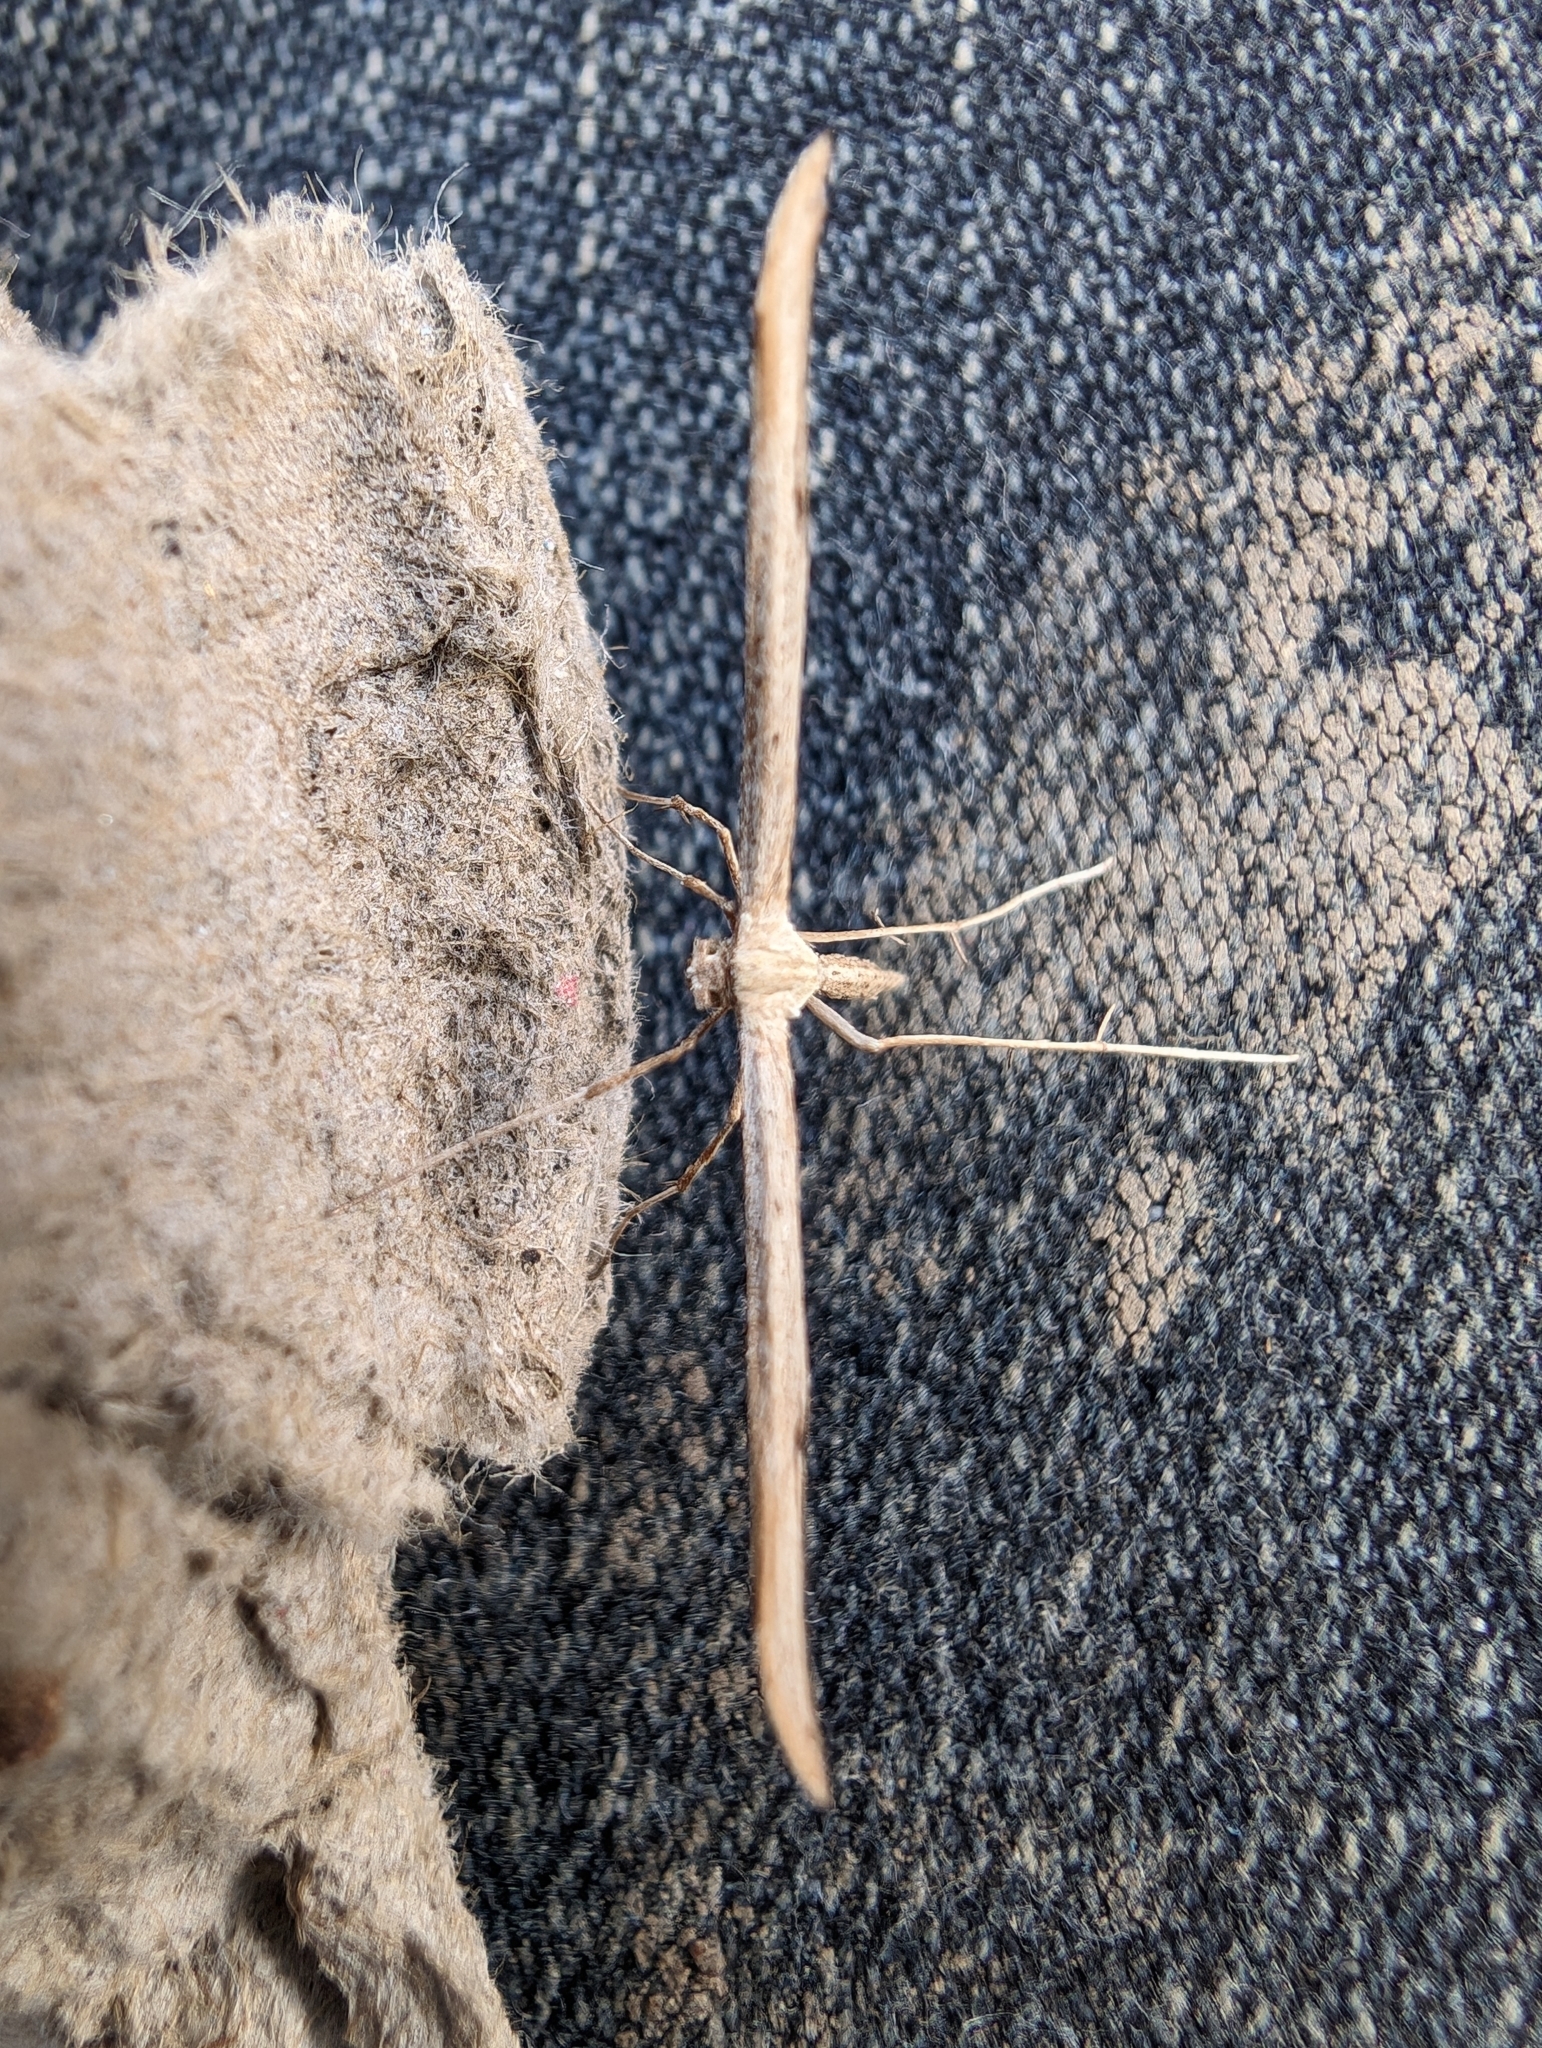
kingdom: Animalia
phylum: Arthropoda
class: Insecta
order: Lepidoptera
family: Pterophoridae
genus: Emmelina
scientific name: Emmelina monodactyla
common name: Common plume
